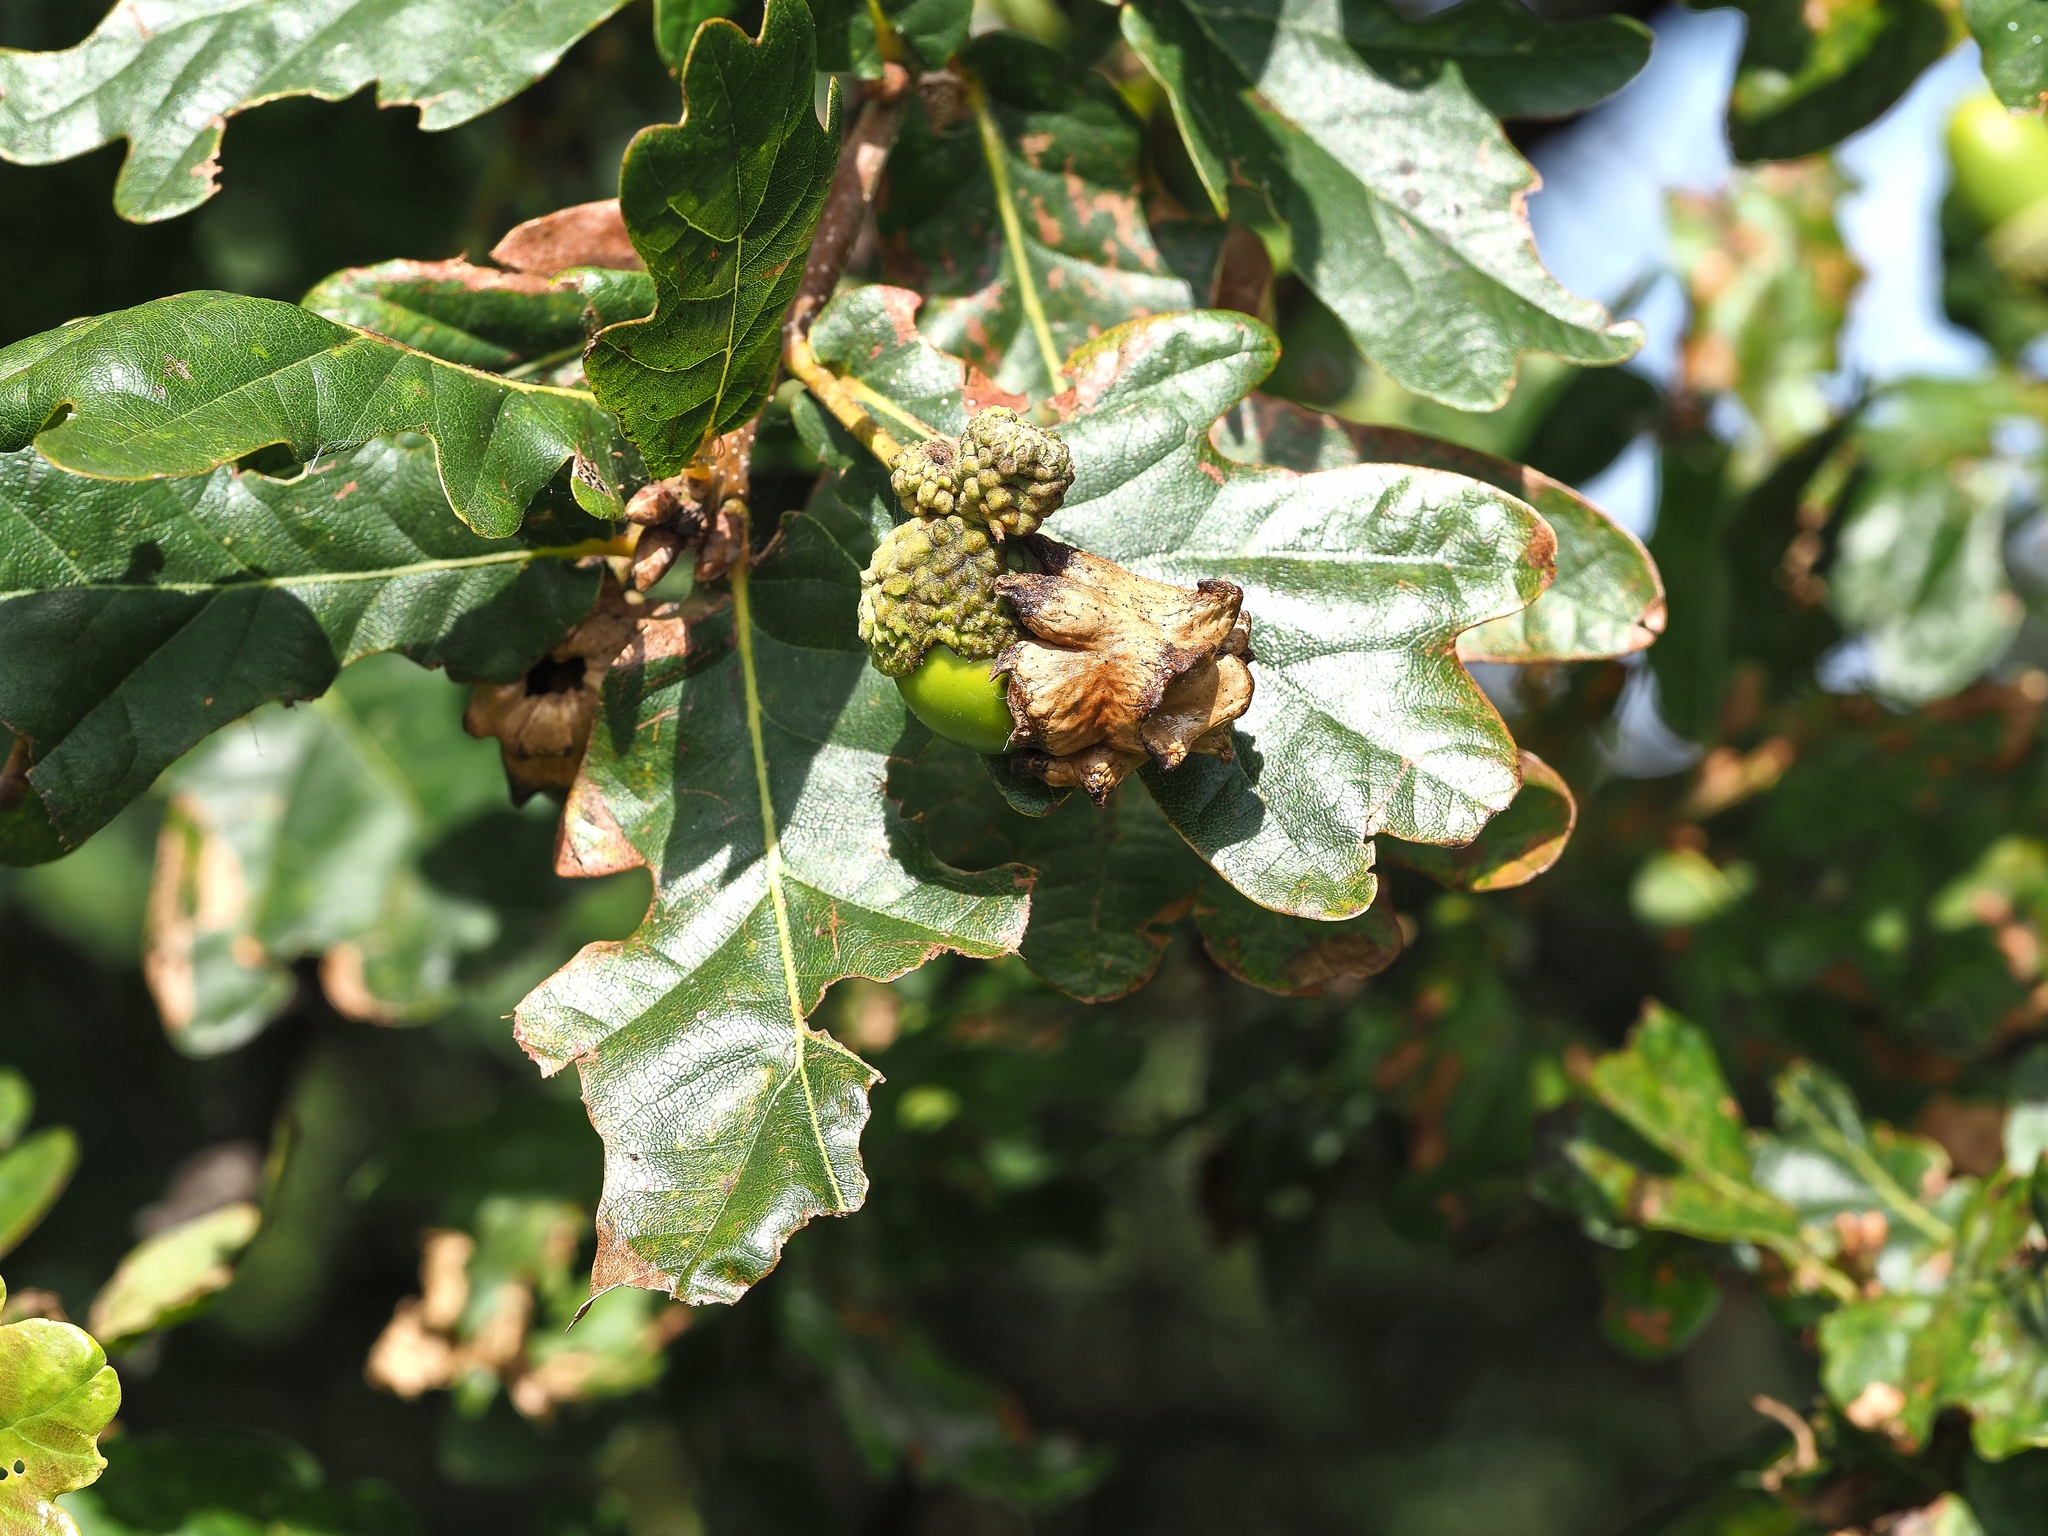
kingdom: Animalia
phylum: Arthropoda
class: Insecta
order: Hymenoptera
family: Cynipidae
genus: Andricus
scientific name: Andricus quercuscalicis
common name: Knopper gall
